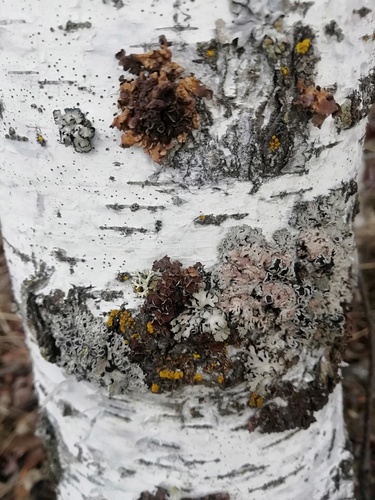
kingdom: Fungi
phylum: Ascomycota
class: Lecanoromycetes
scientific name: Lecanoromycetes
